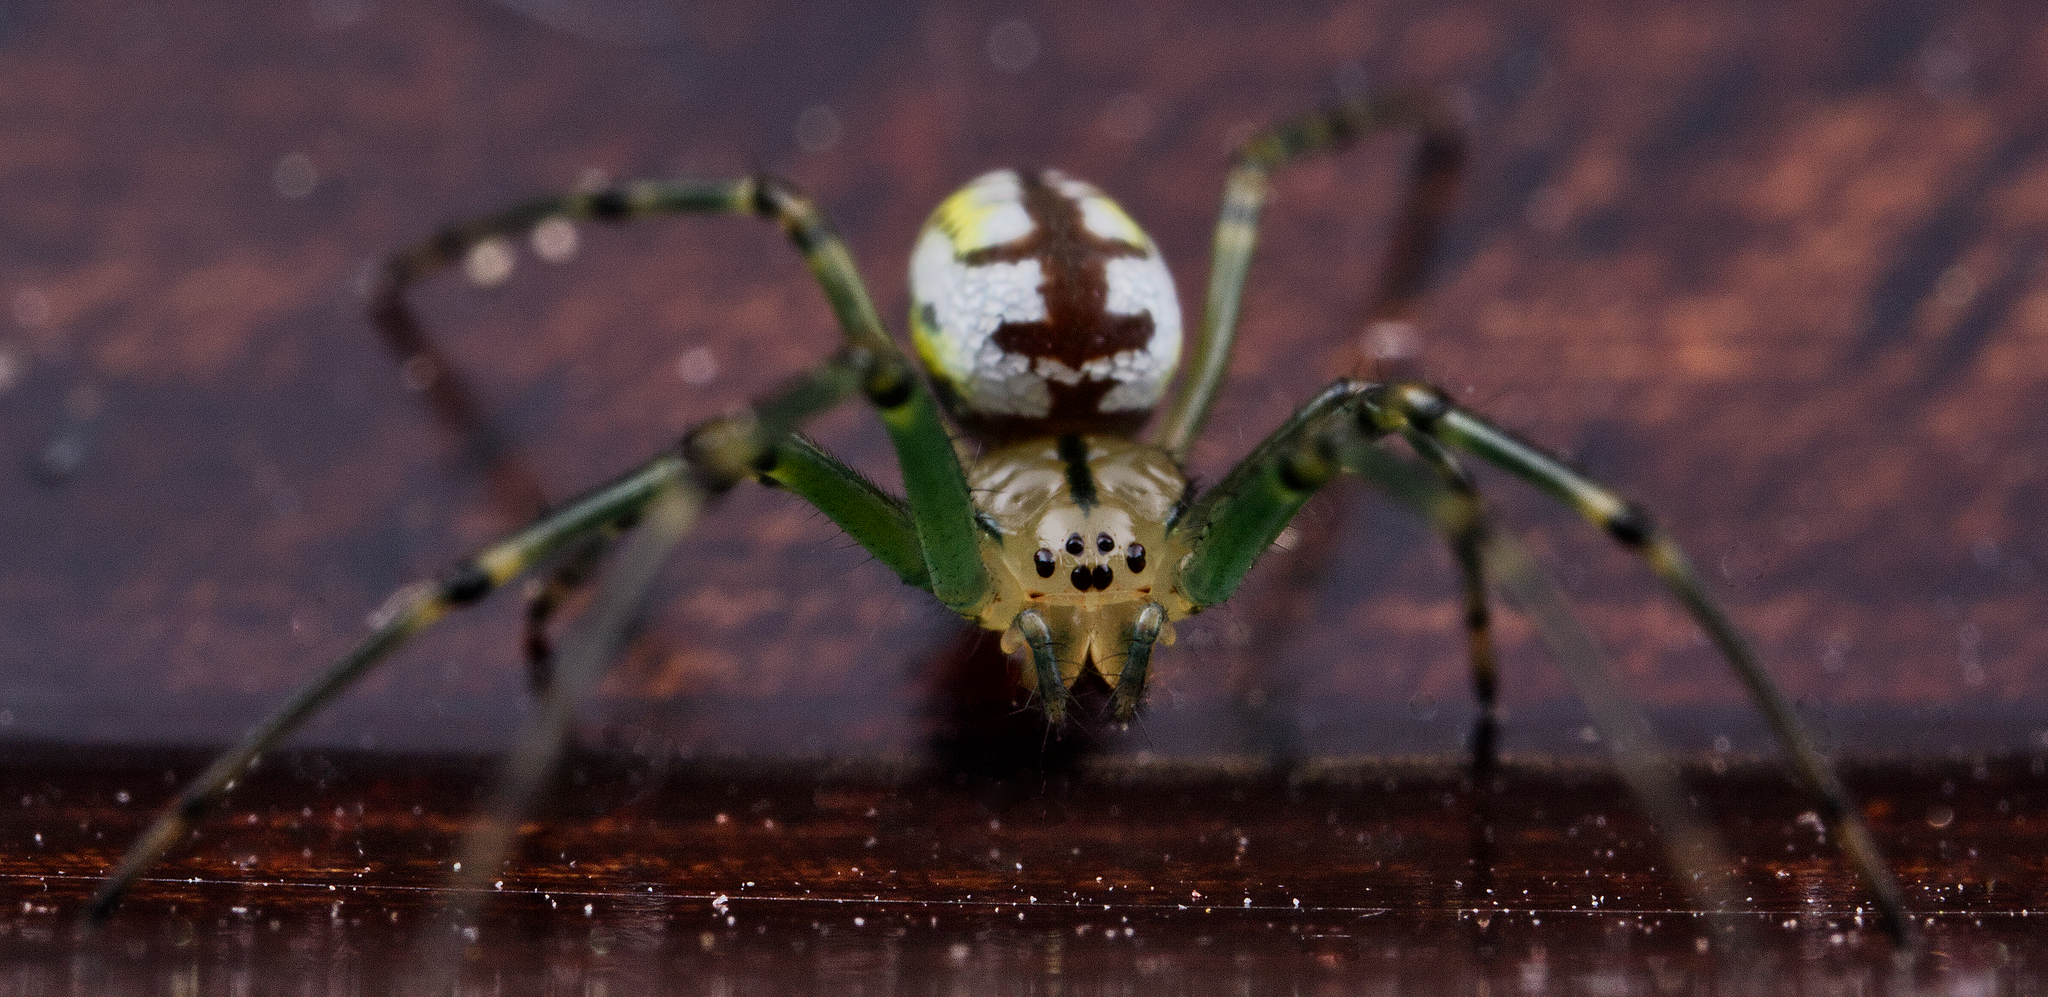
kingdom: Animalia
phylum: Arthropoda
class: Arachnida
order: Araneae
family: Tetragnathidae
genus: Leucauge
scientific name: Leucauge venusta
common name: Longjawed orb weavers
